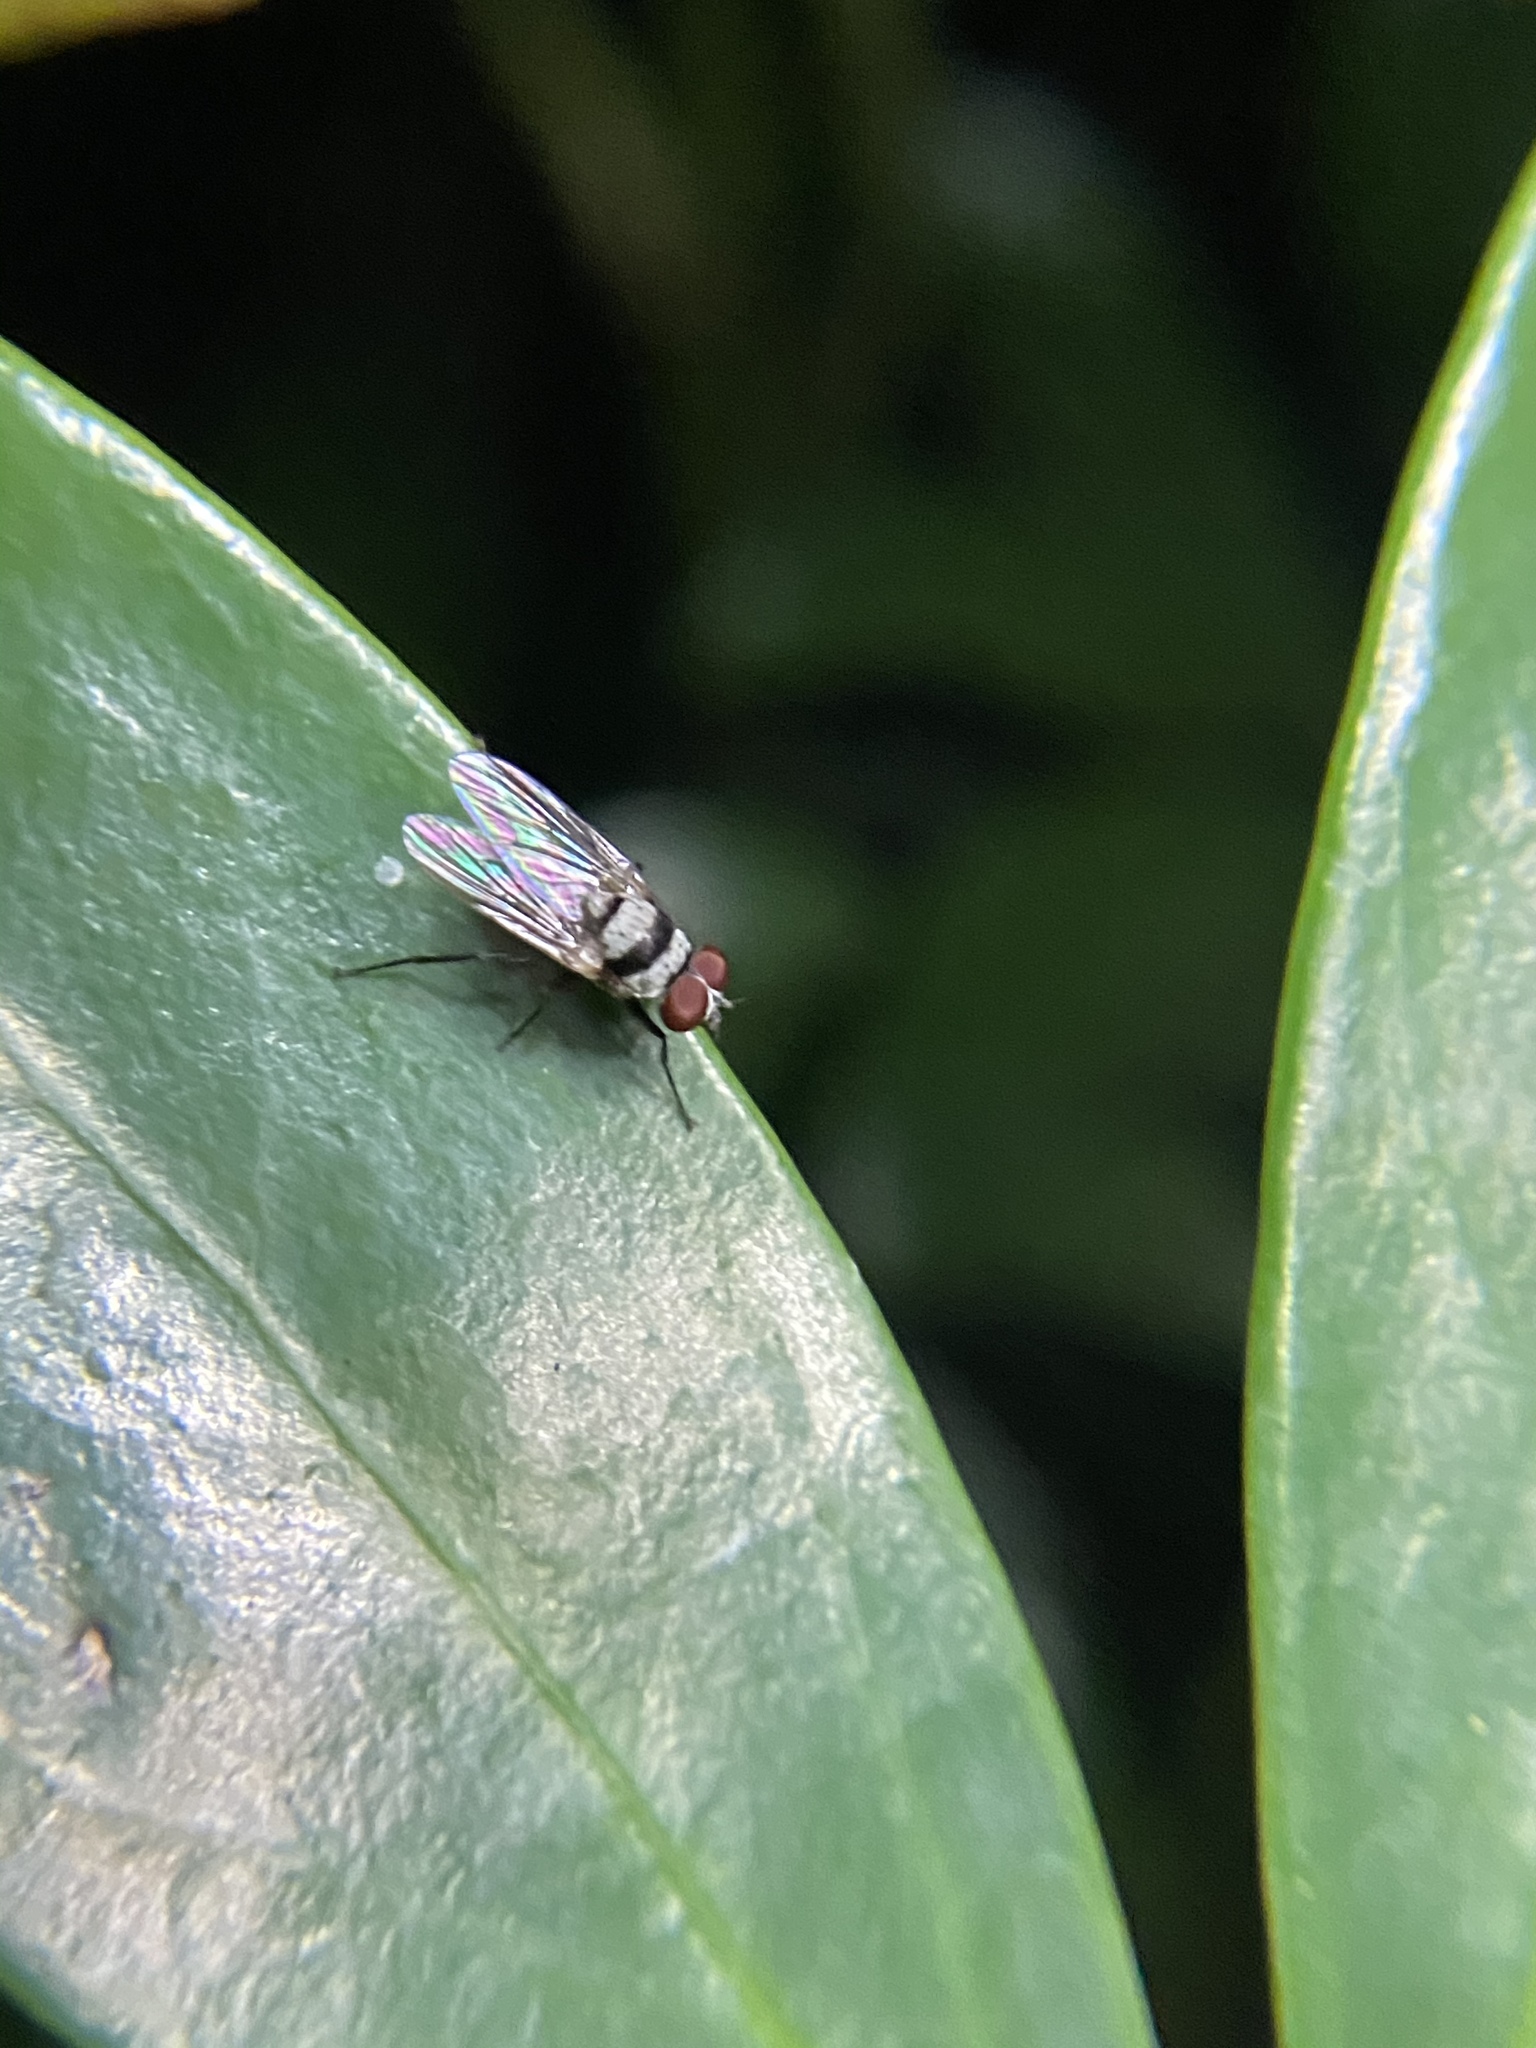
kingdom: Animalia
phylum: Arthropoda
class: Insecta
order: Diptera
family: Anthomyiidae
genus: Anthomyia
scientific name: Anthomyia illocata
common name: Fly
